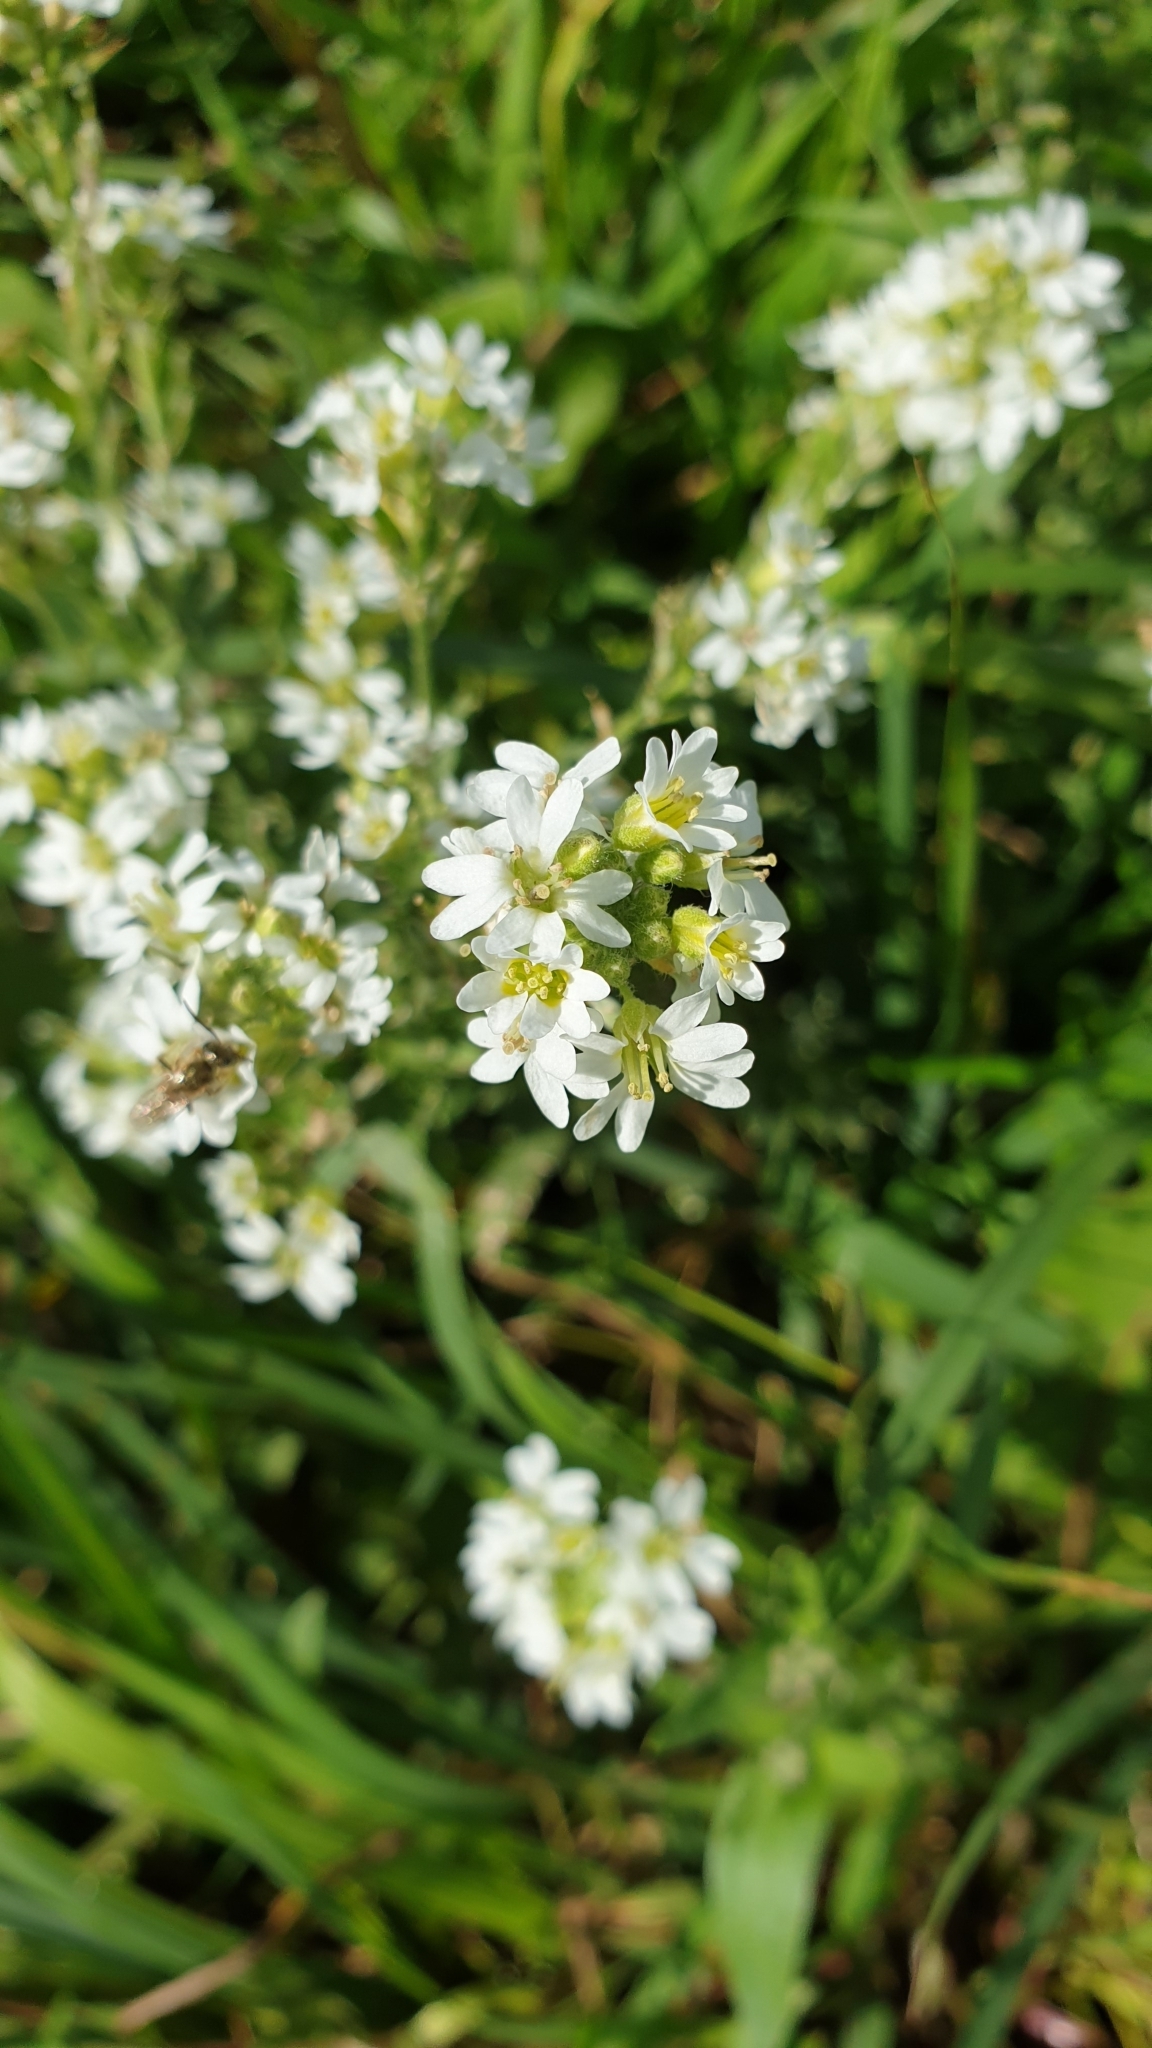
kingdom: Plantae
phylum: Tracheophyta
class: Magnoliopsida
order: Brassicales
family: Brassicaceae
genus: Berteroa
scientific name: Berteroa incana
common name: Hoary alison
